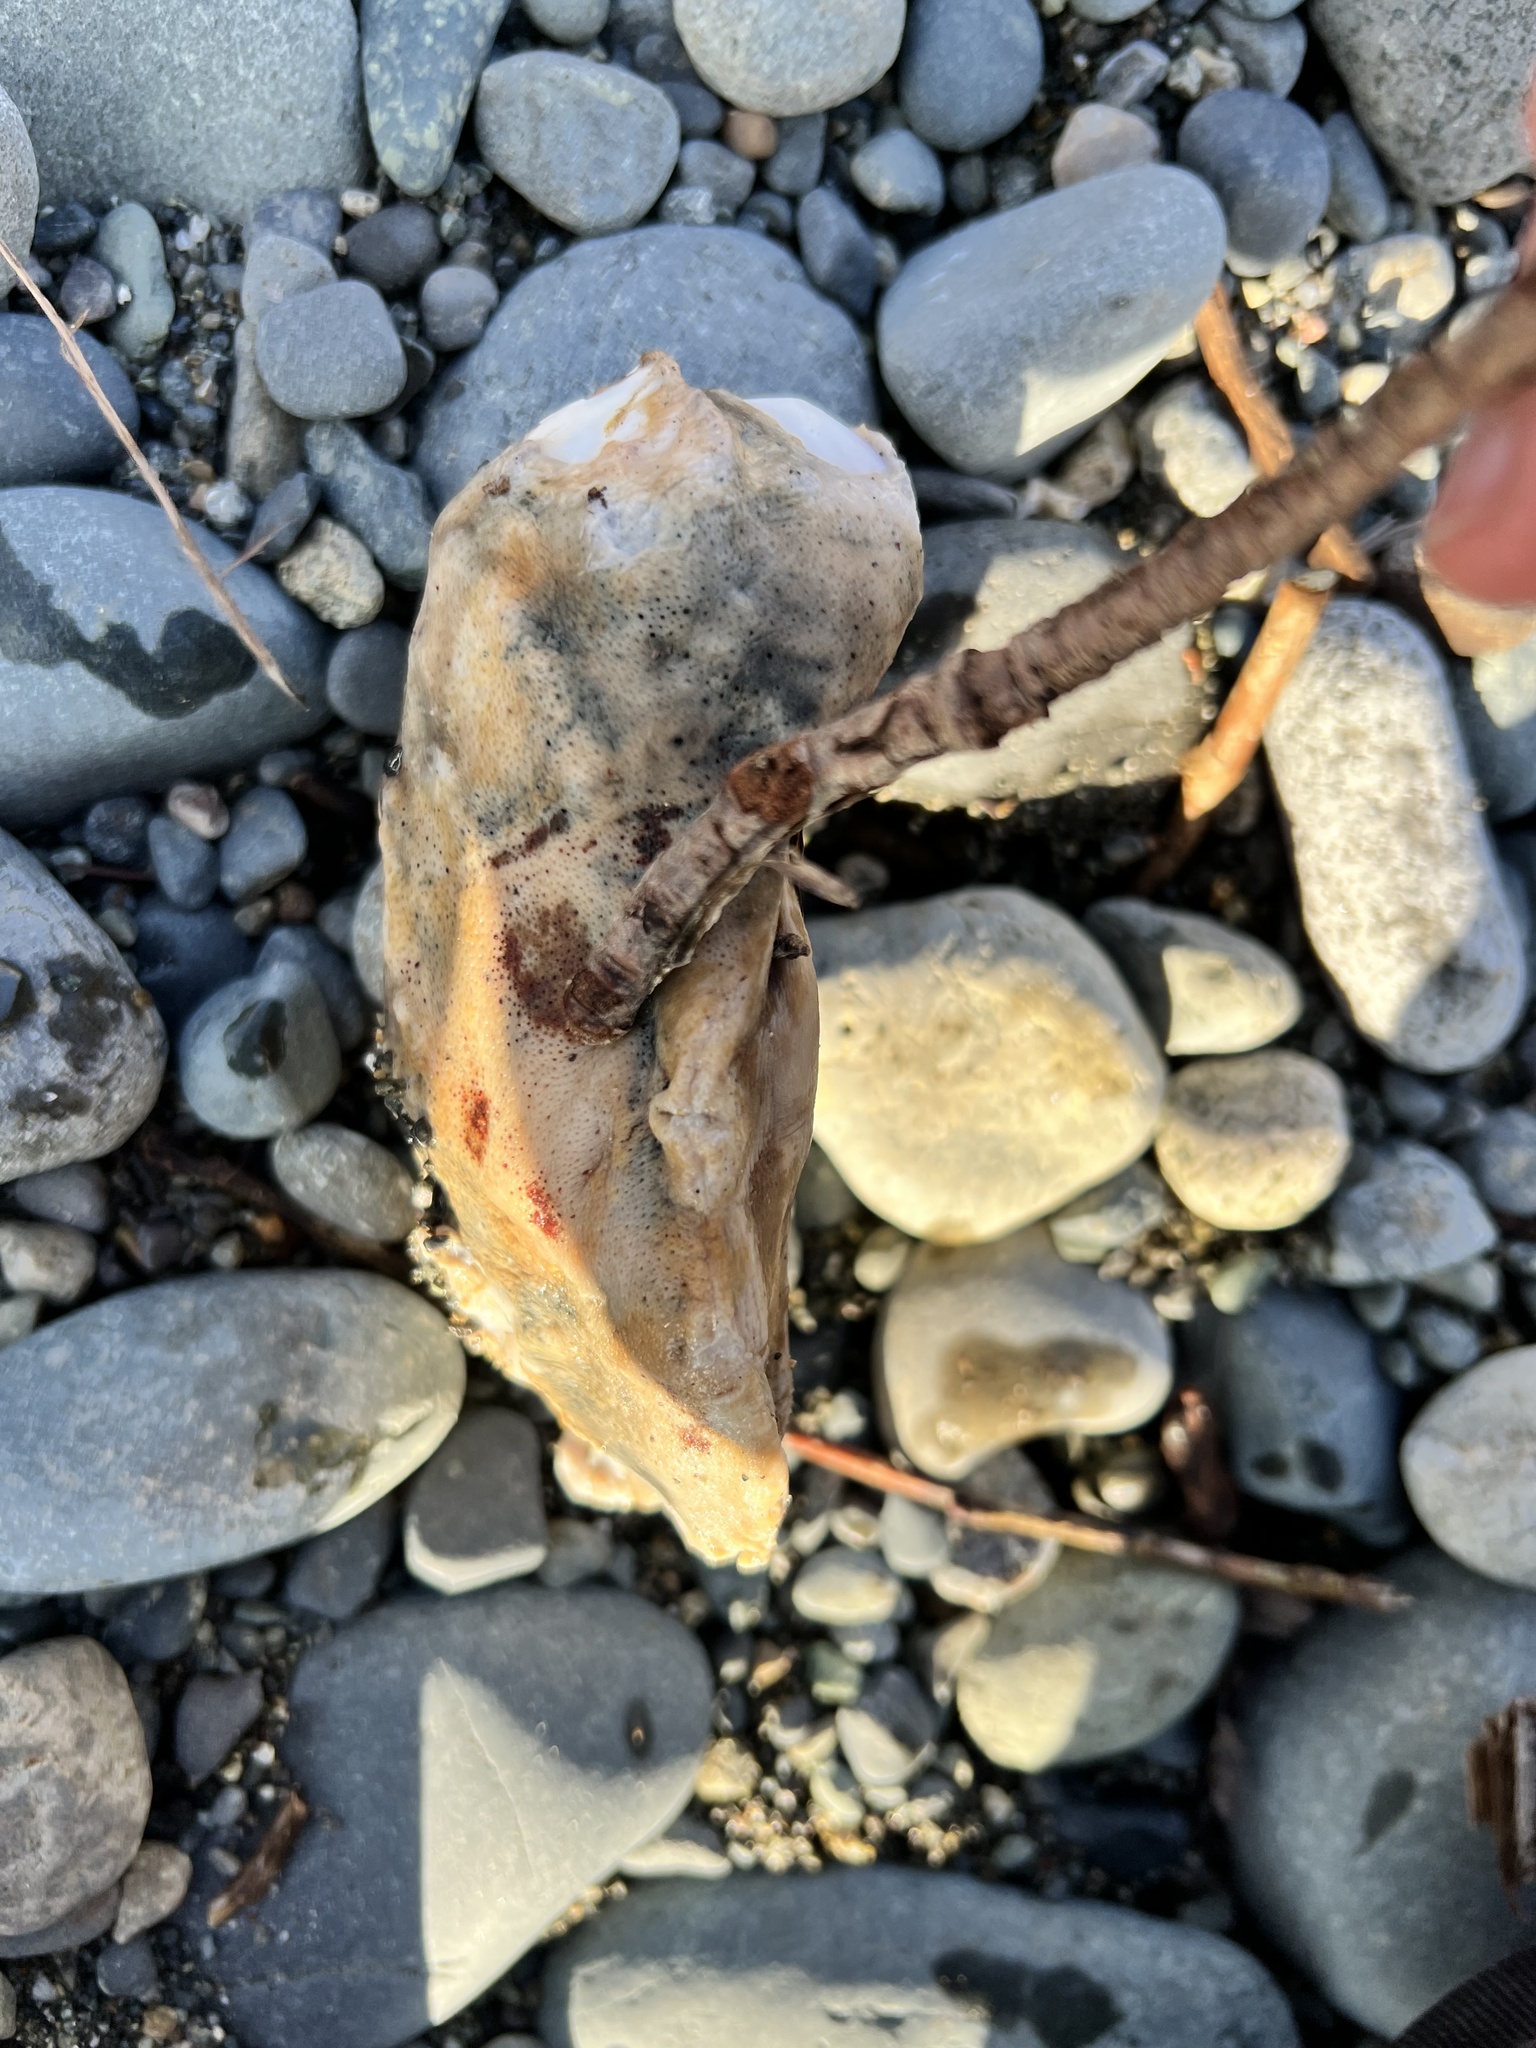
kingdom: Animalia
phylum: Mollusca
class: Polyplacophora
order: Chitonida
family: Acanthochitonidae
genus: Cryptochiton
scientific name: Cryptochiton stelleri
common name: Giant pacific chiton
